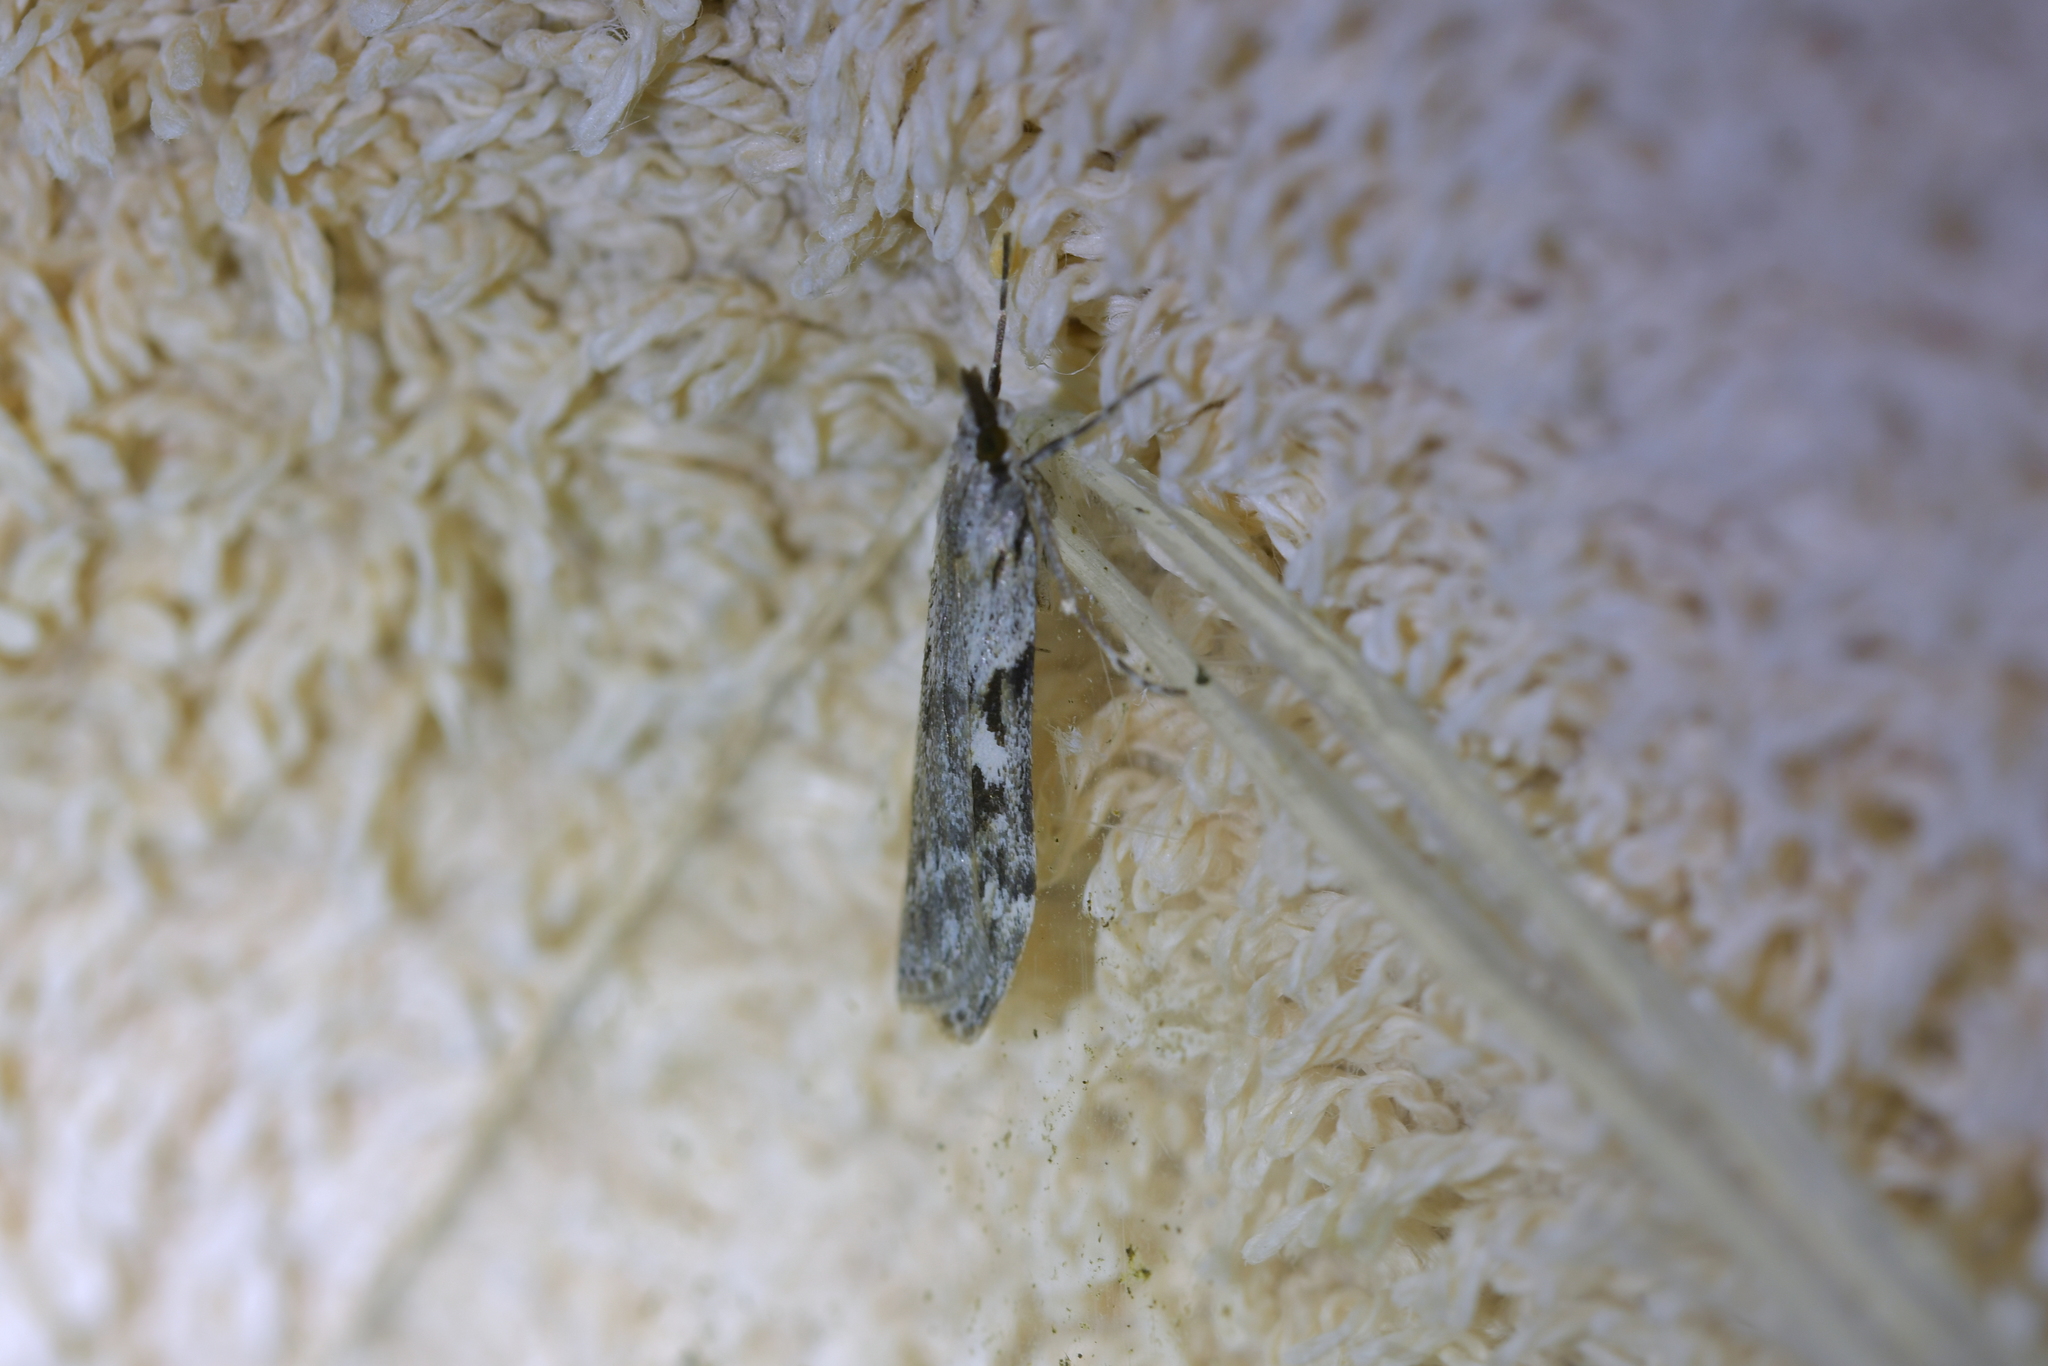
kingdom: Animalia
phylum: Arthropoda
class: Insecta
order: Lepidoptera
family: Crambidae
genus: Scoparia
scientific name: Scoparia halopis
